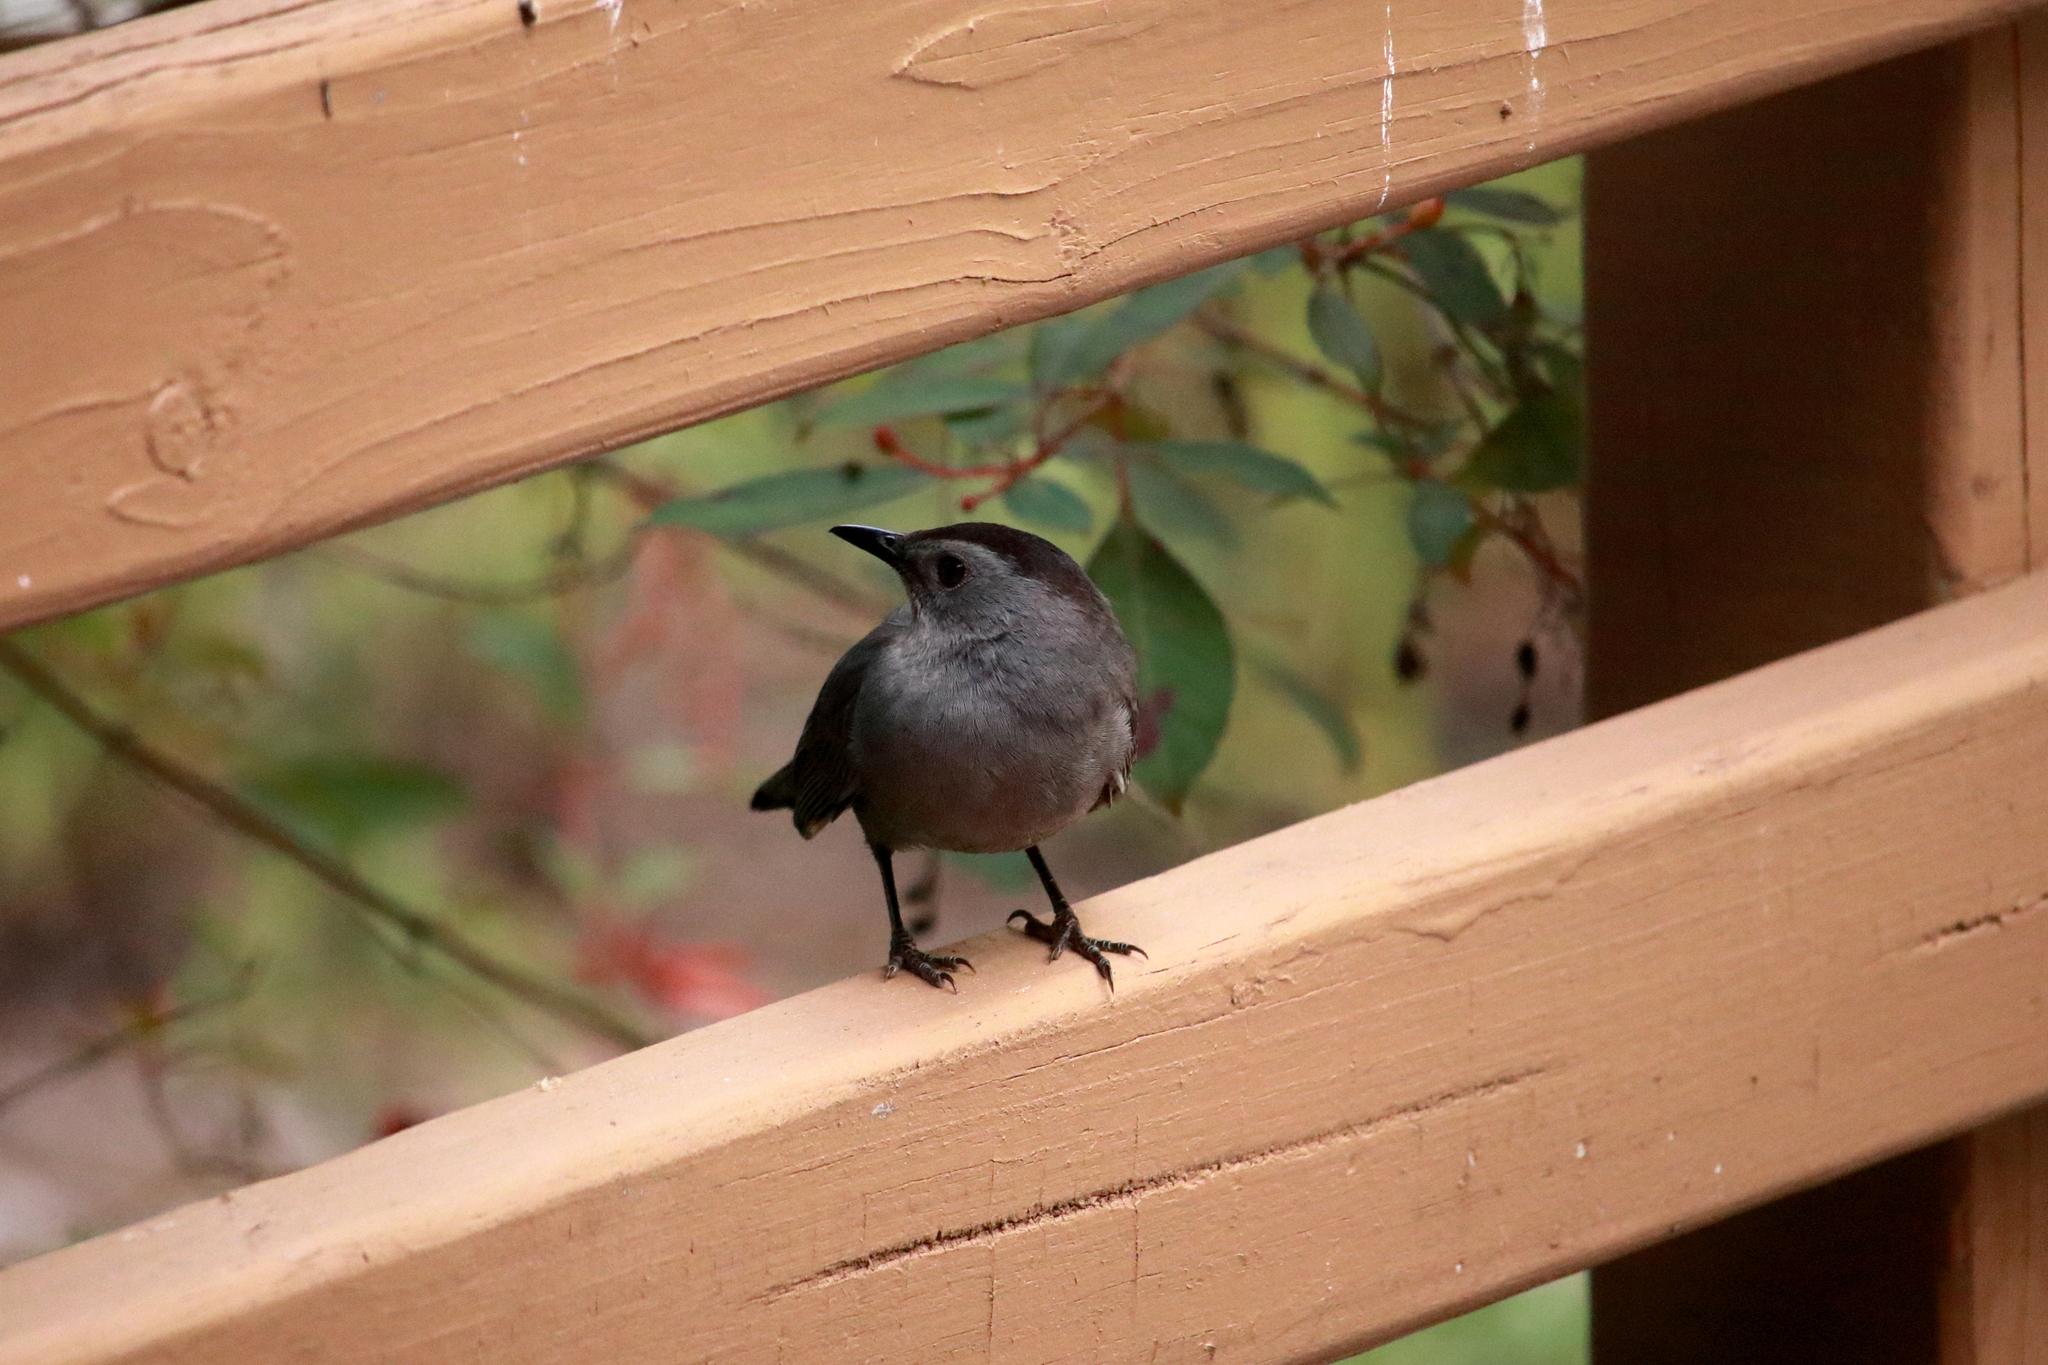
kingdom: Animalia
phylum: Chordata
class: Aves
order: Passeriformes
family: Mimidae
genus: Dumetella
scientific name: Dumetella carolinensis
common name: Gray catbird
